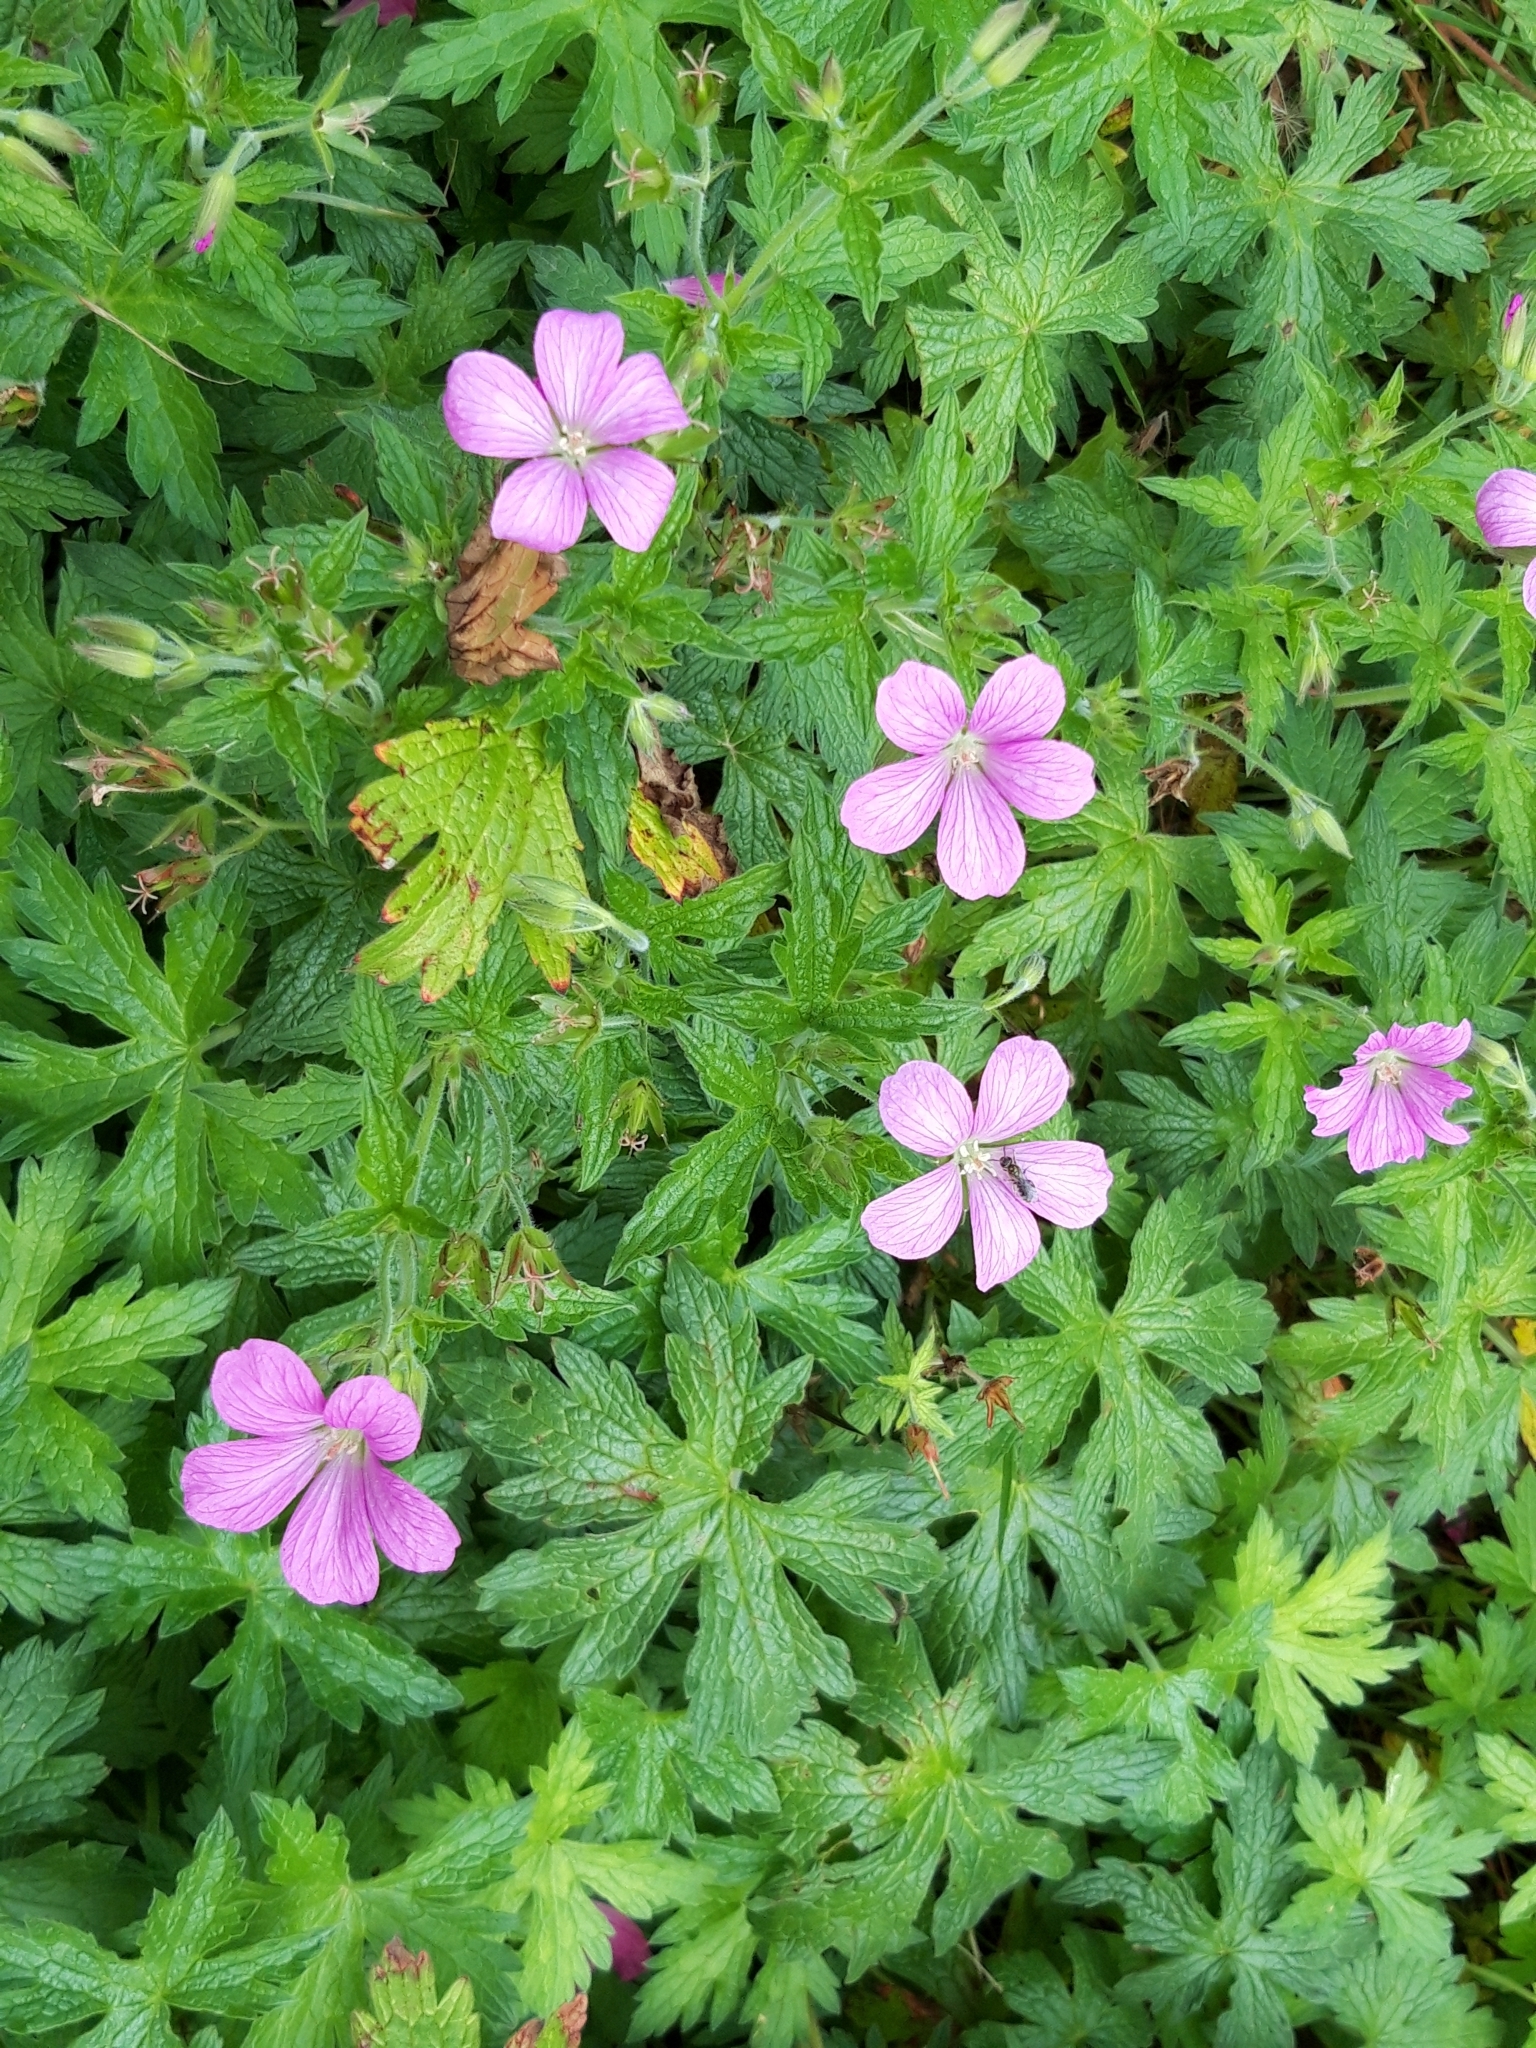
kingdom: Plantae
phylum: Tracheophyta
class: Magnoliopsida
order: Geraniales
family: Geraniaceae
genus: Geranium
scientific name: Geranium oxonianum
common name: Druce's crane's-bill
